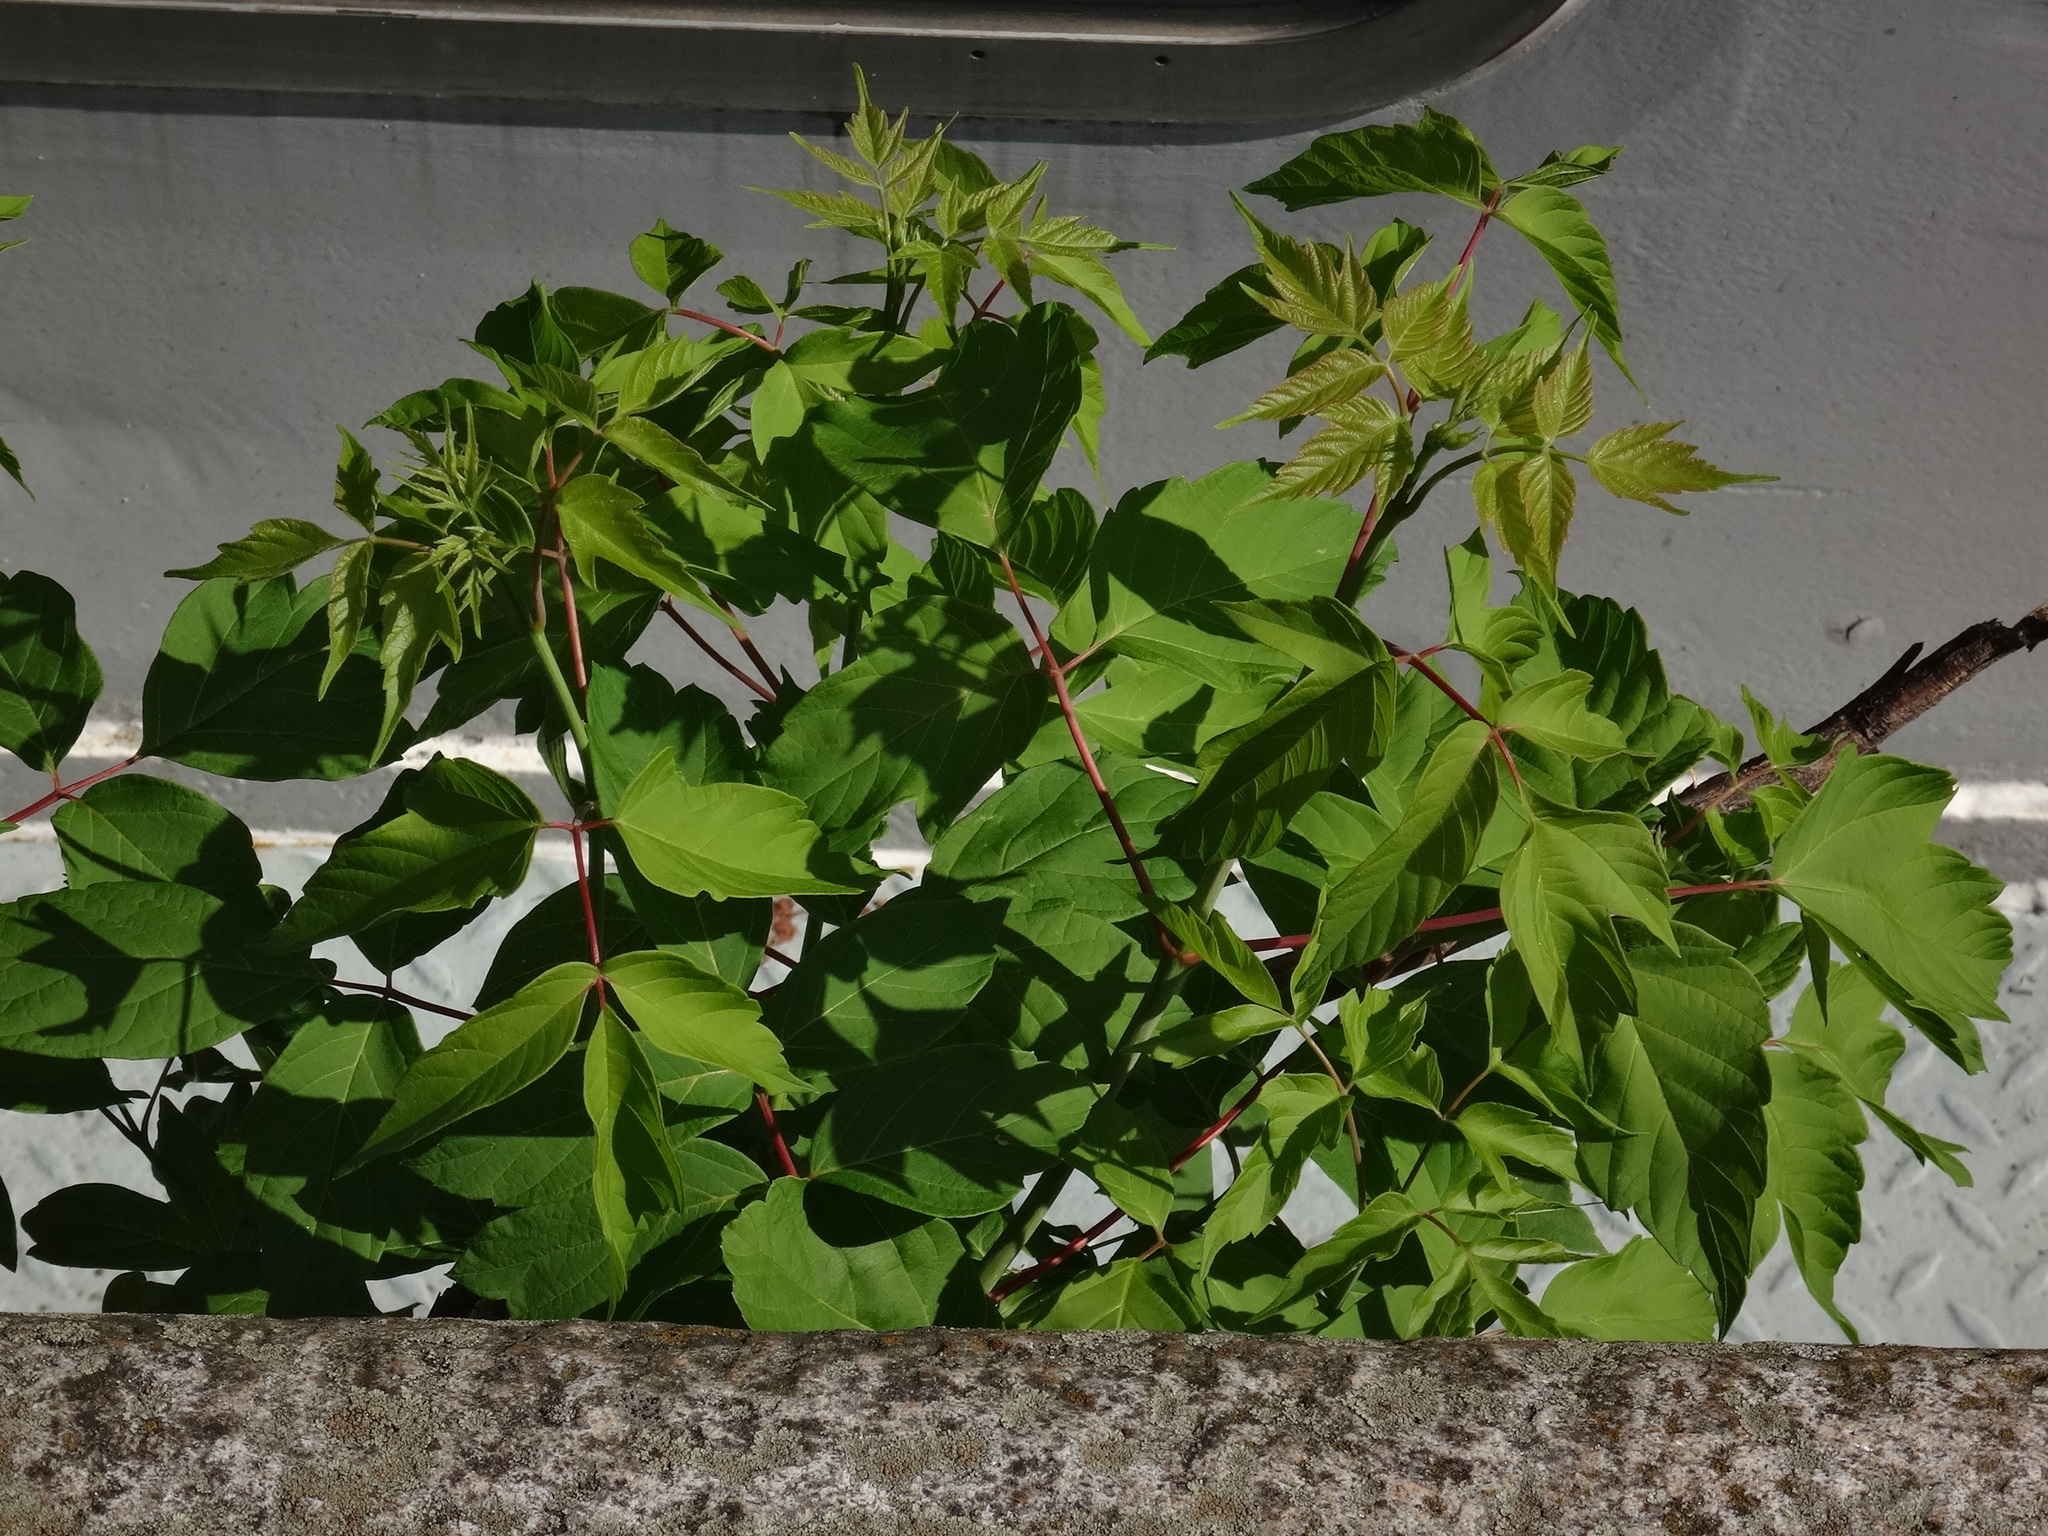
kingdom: Plantae
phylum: Tracheophyta
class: Magnoliopsida
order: Sapindales
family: Sapindaceae
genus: Acer
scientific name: Acer negundo
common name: Ashleaf maple
